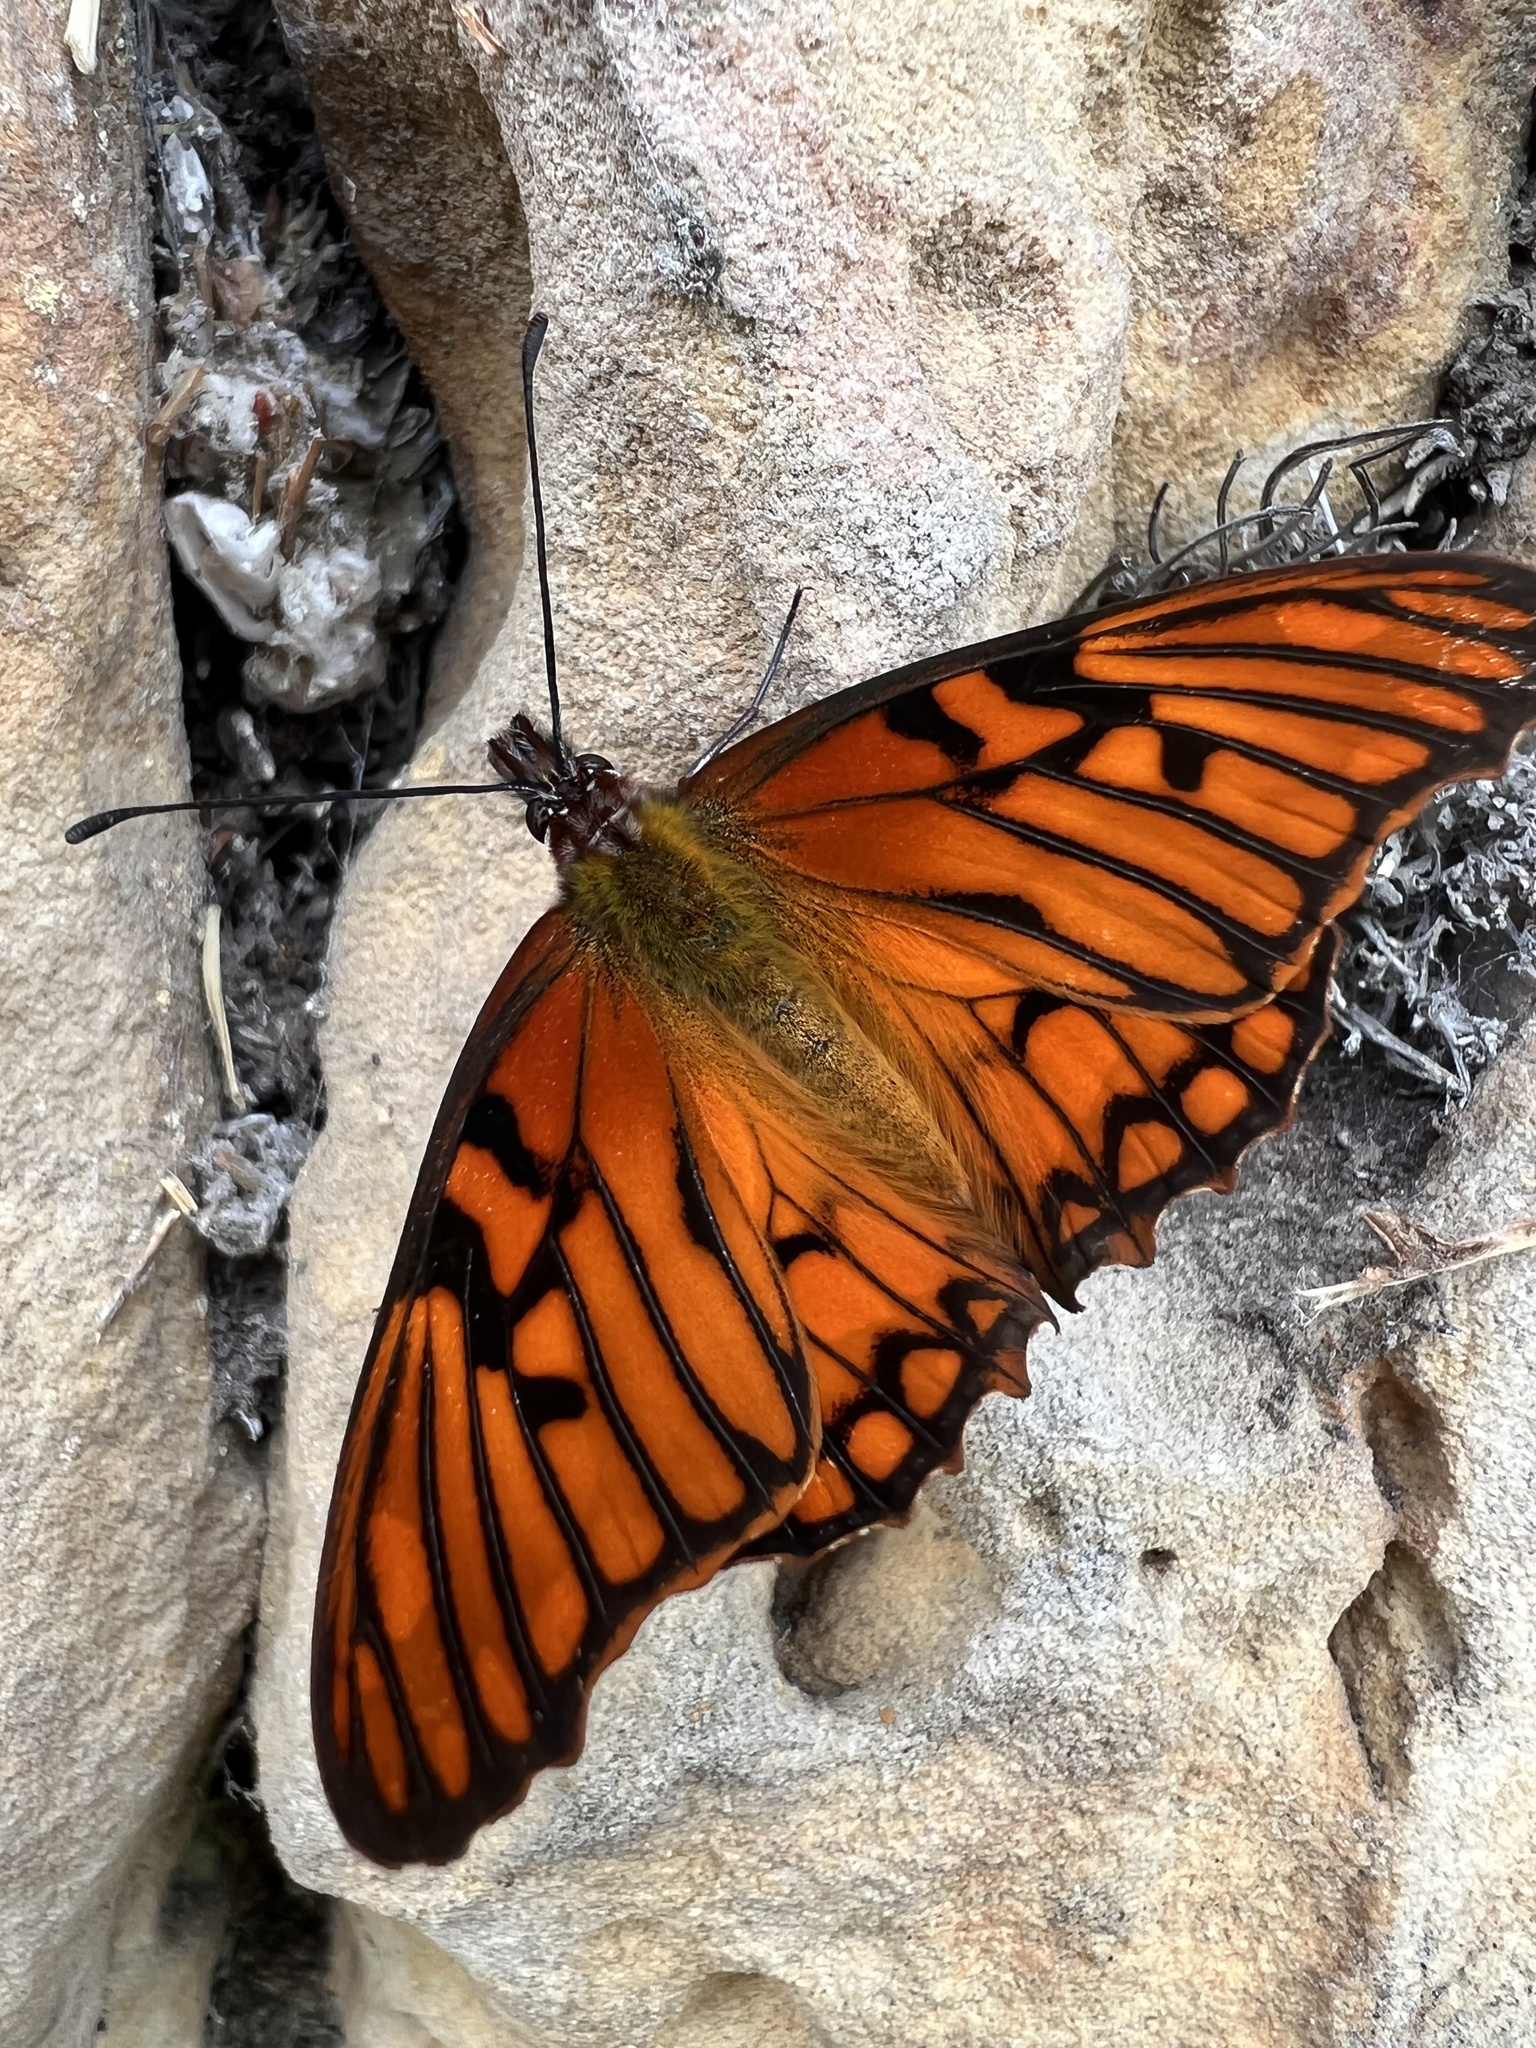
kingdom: Animalia
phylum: Arthropoda
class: Insecta
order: Lepidoptera
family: Nymphalidae
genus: Dione
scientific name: Dione glycera
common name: Andean silverspot
